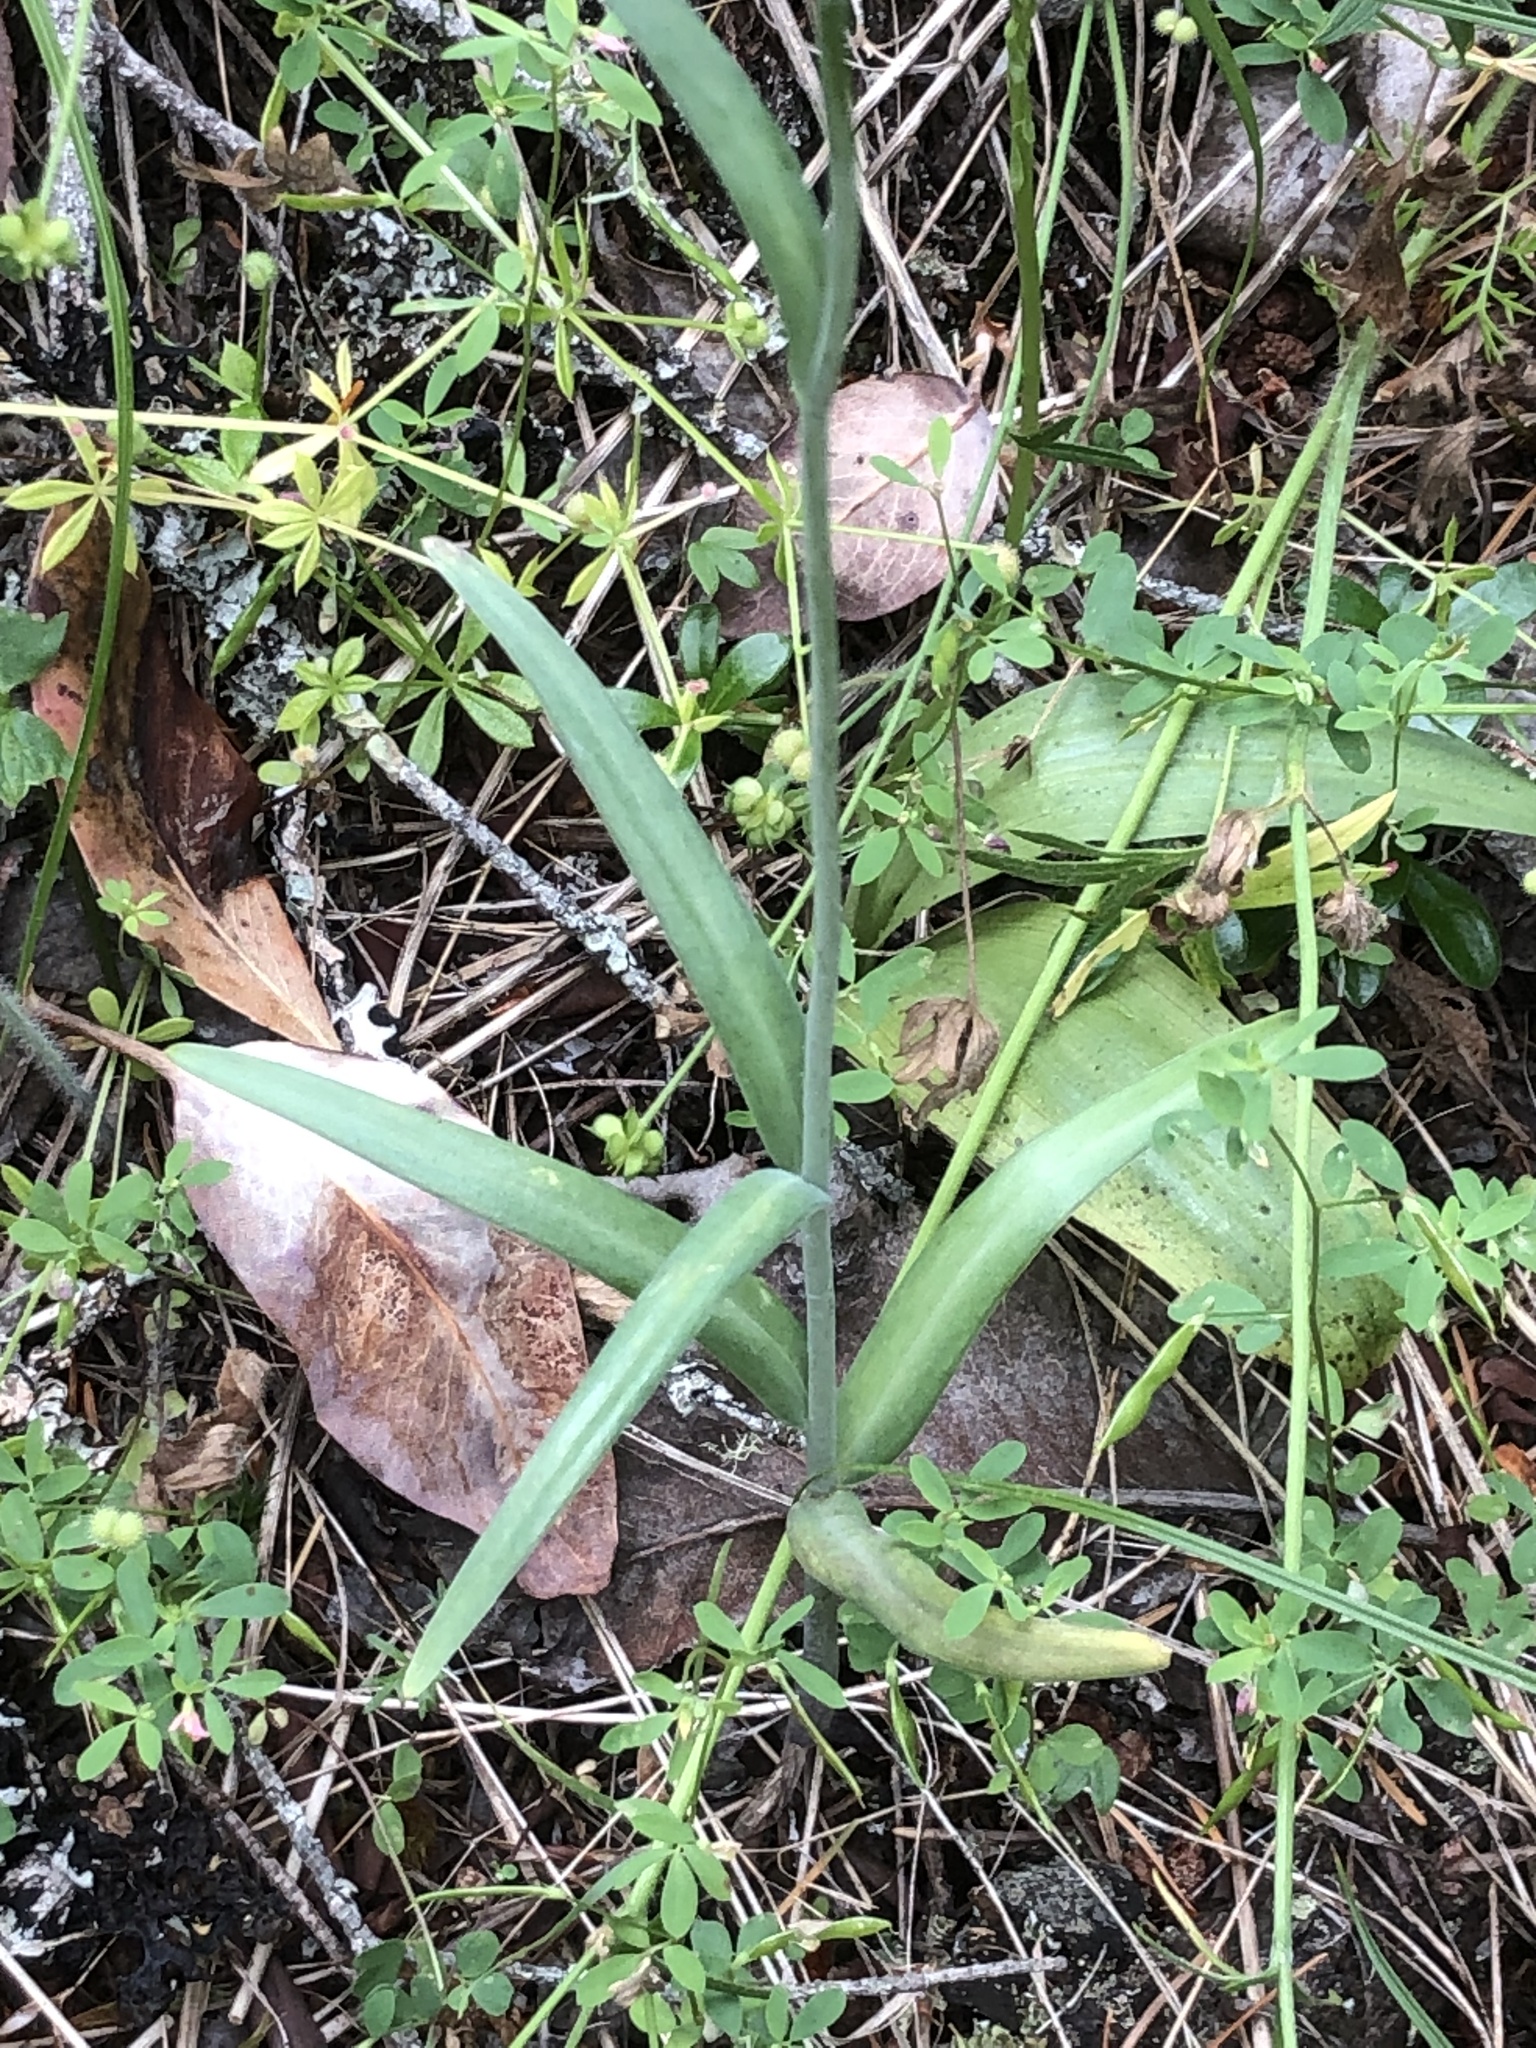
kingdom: Plantae
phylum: Tracheophyta
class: Liliopsida
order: Liliales
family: Liliaceae
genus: Fritillaria
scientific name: Fritillaria affinis
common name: Ojai fritillary
